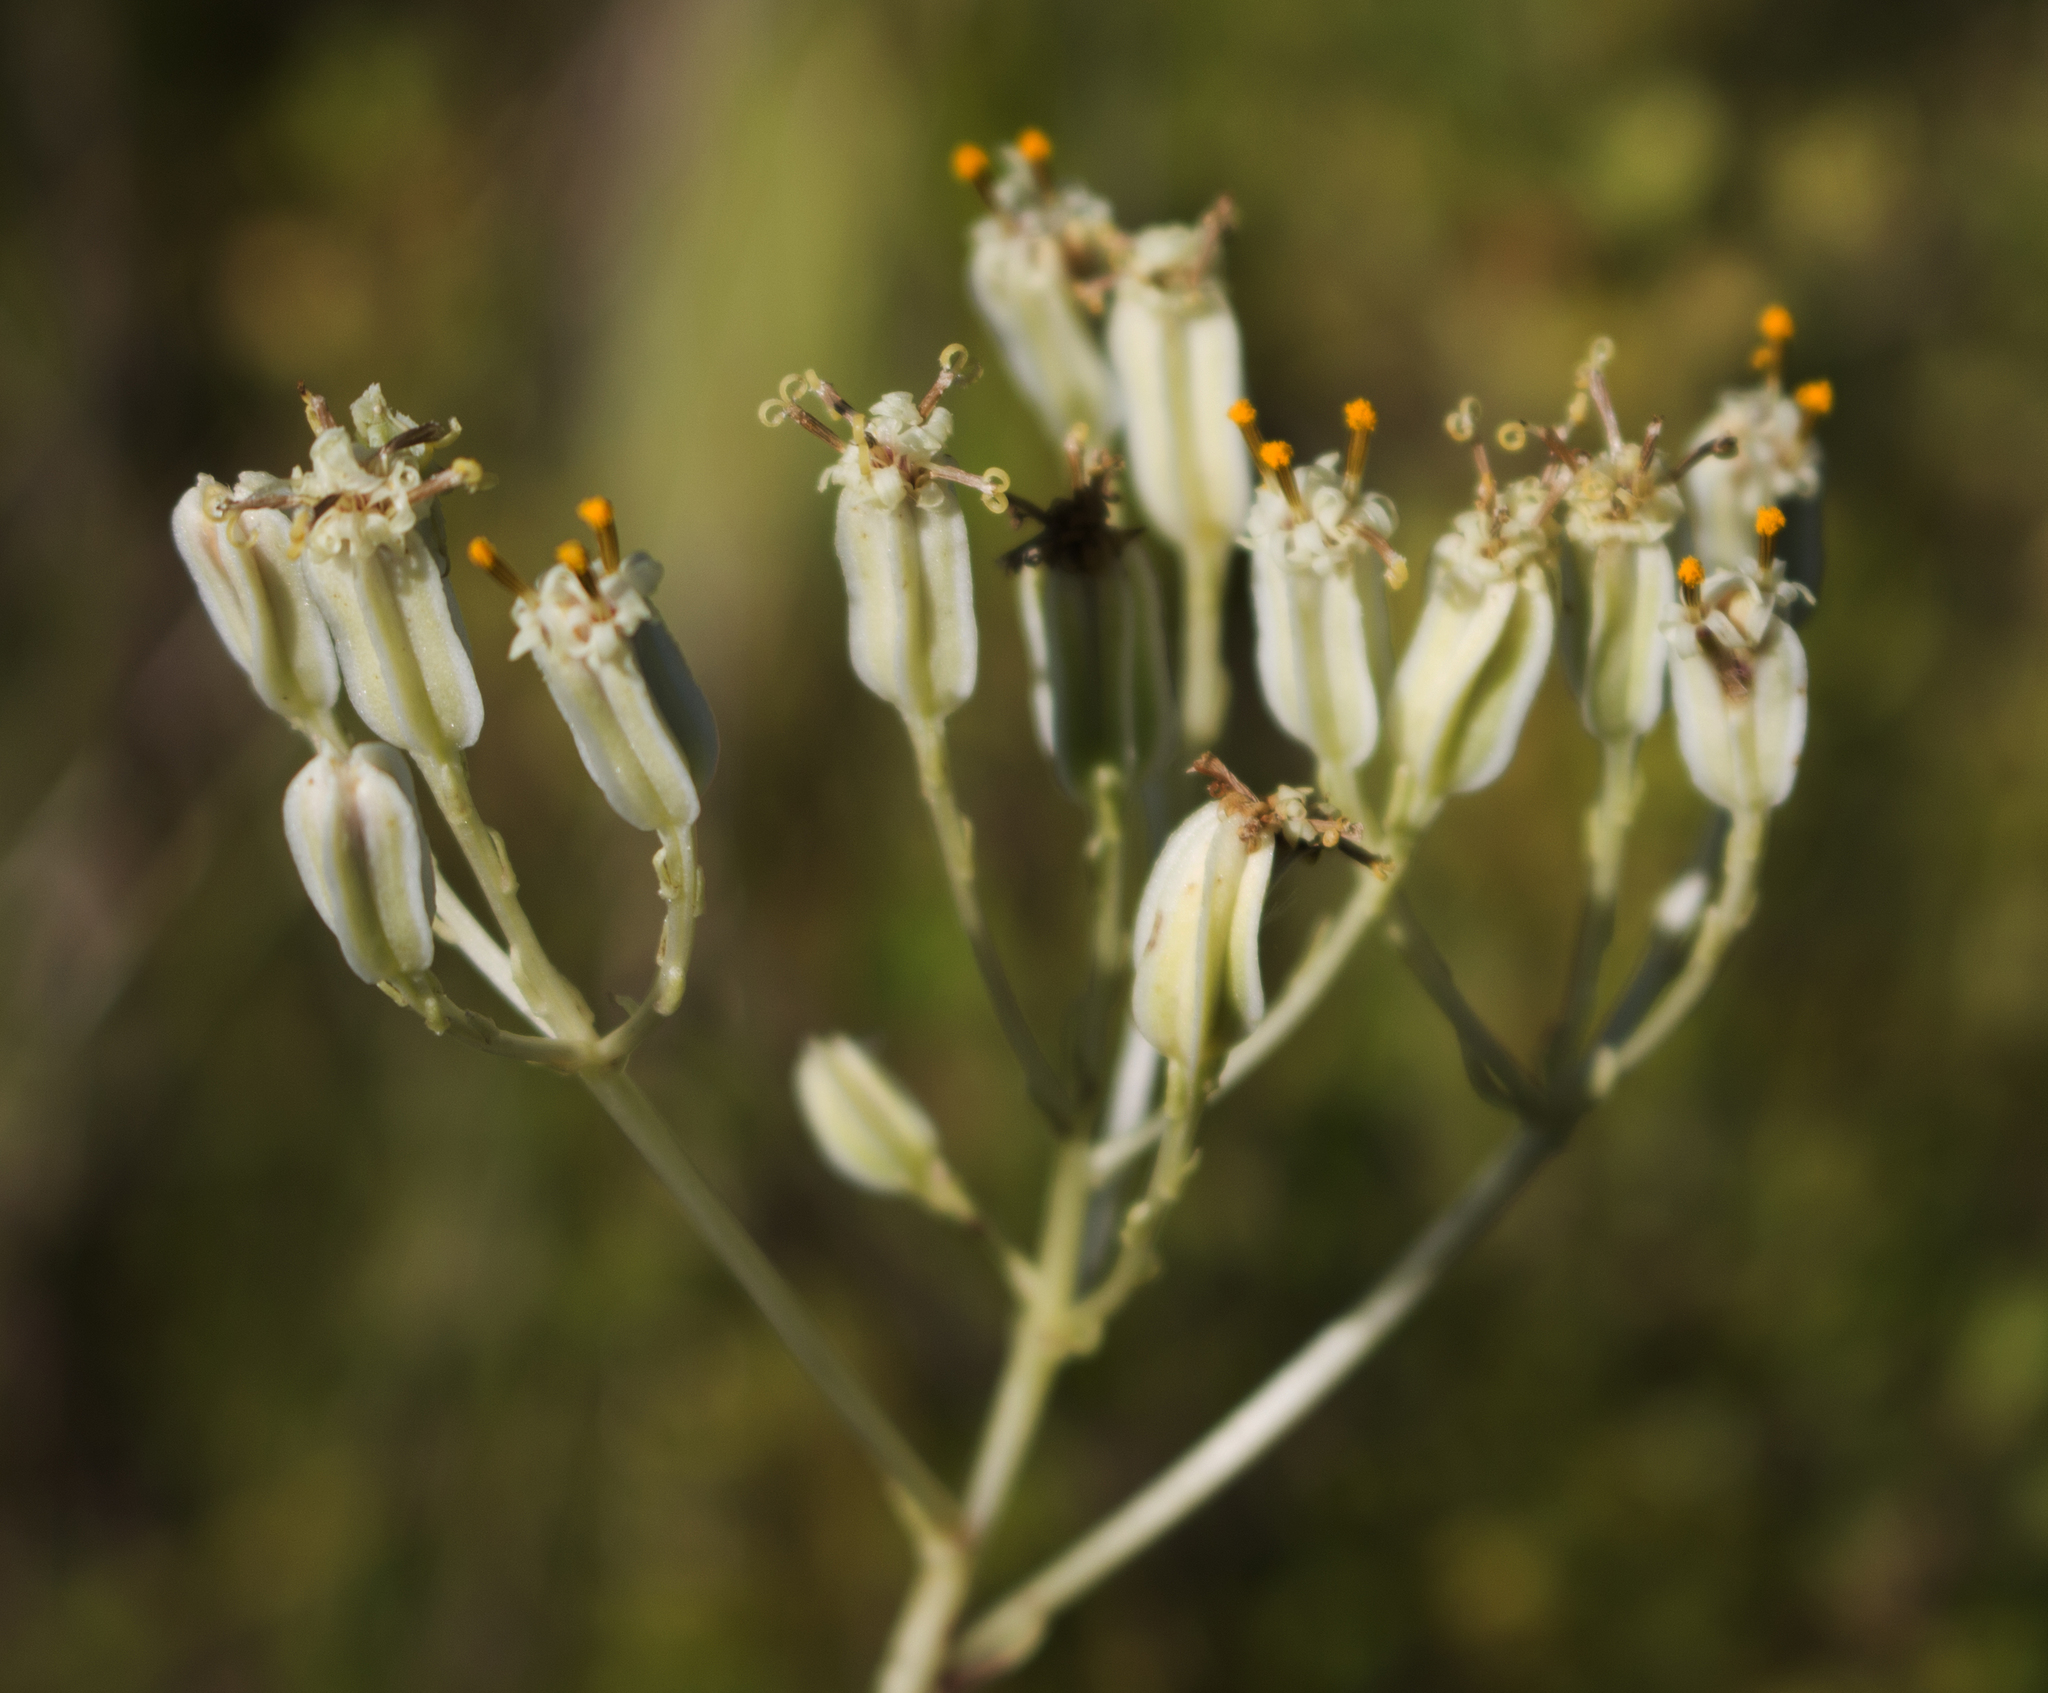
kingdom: Plantae
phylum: Tracheophyta
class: Magnoliopsida
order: Asterales
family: Asteraceae
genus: Arnoglossum
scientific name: Arnoglossum plantagineum
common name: Groove-stemmed indian-plantain
